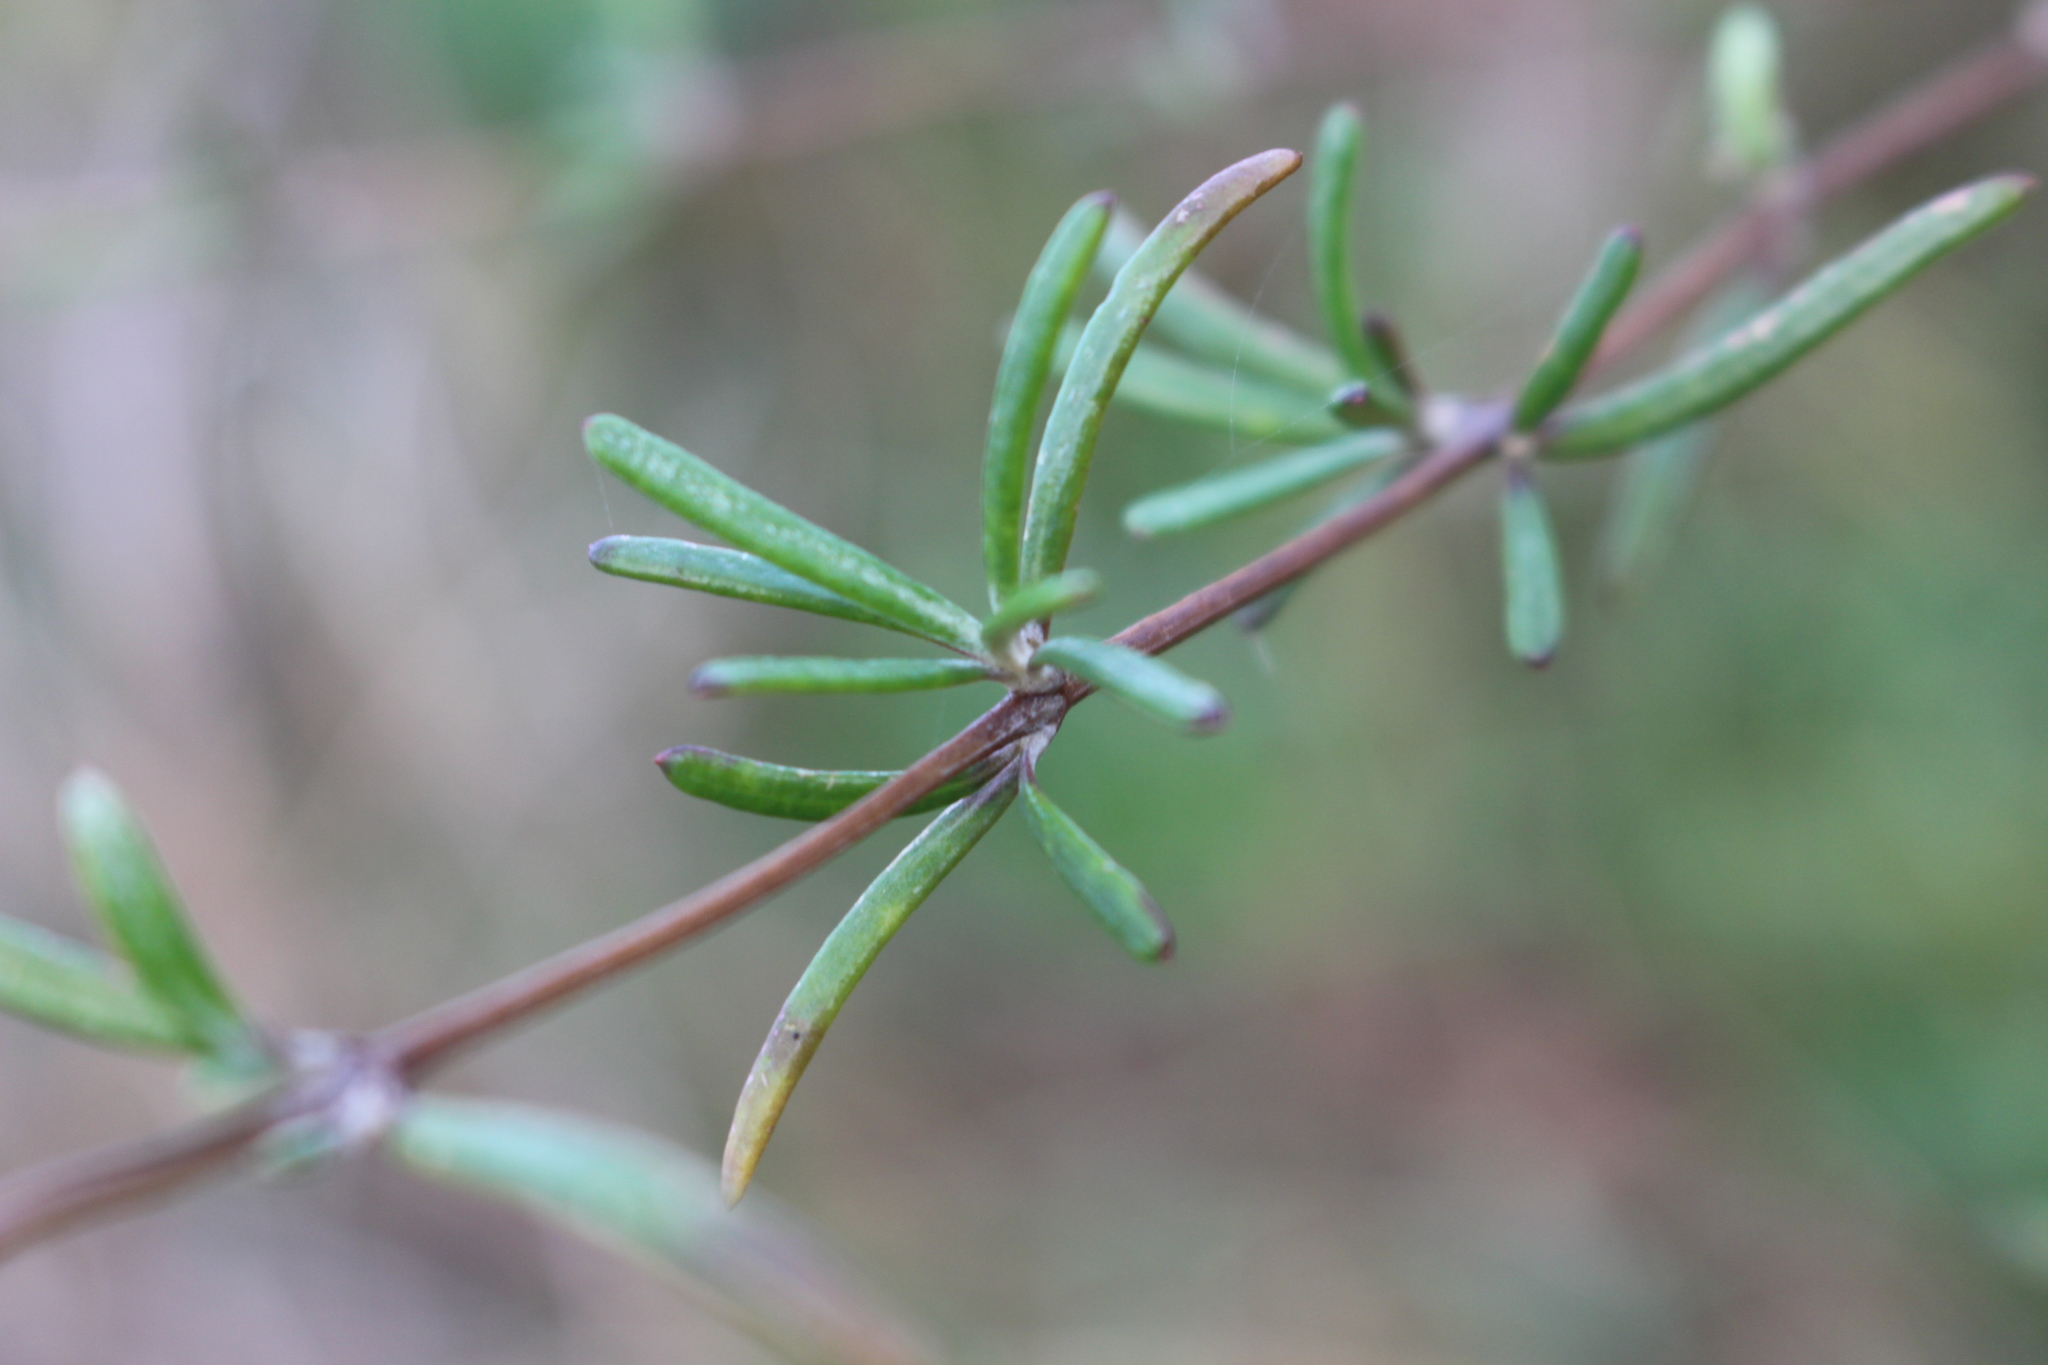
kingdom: Plantae
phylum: Tracheophyta
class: Magnoliopsida
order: Asterales
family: Asteraceae
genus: Olearia
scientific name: Olearia lineata
